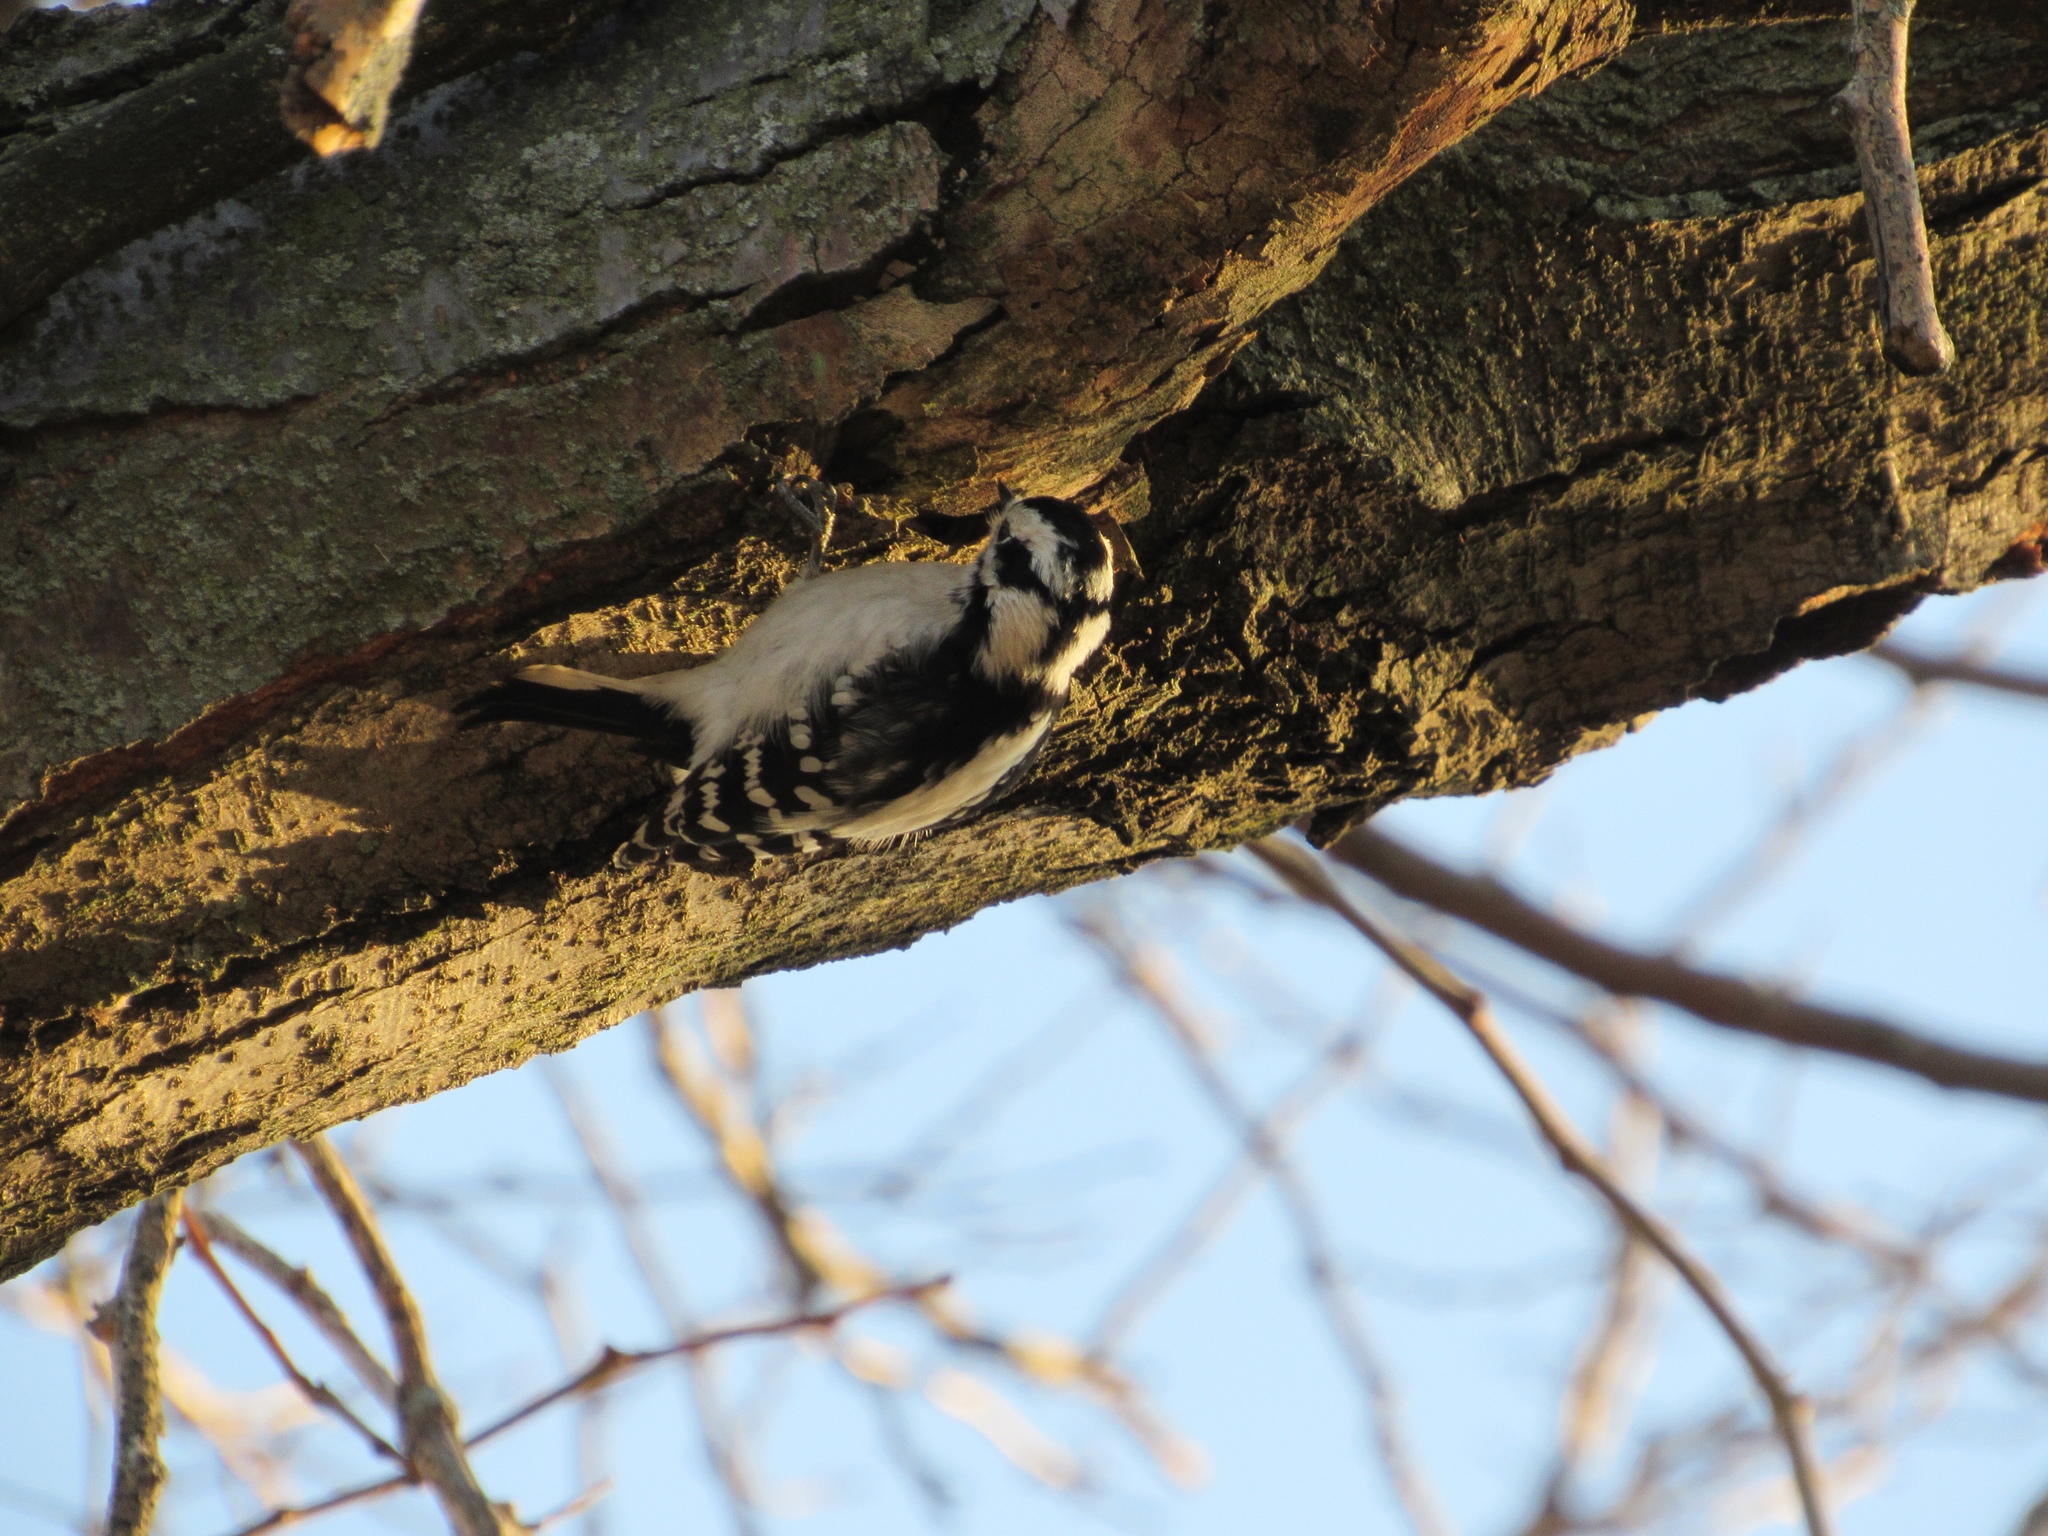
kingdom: Animalia
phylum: Chordata
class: Aves
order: Piciformes
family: Picidae
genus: Dryobates
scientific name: Dryobates pubescens
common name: Downy woodpecker
